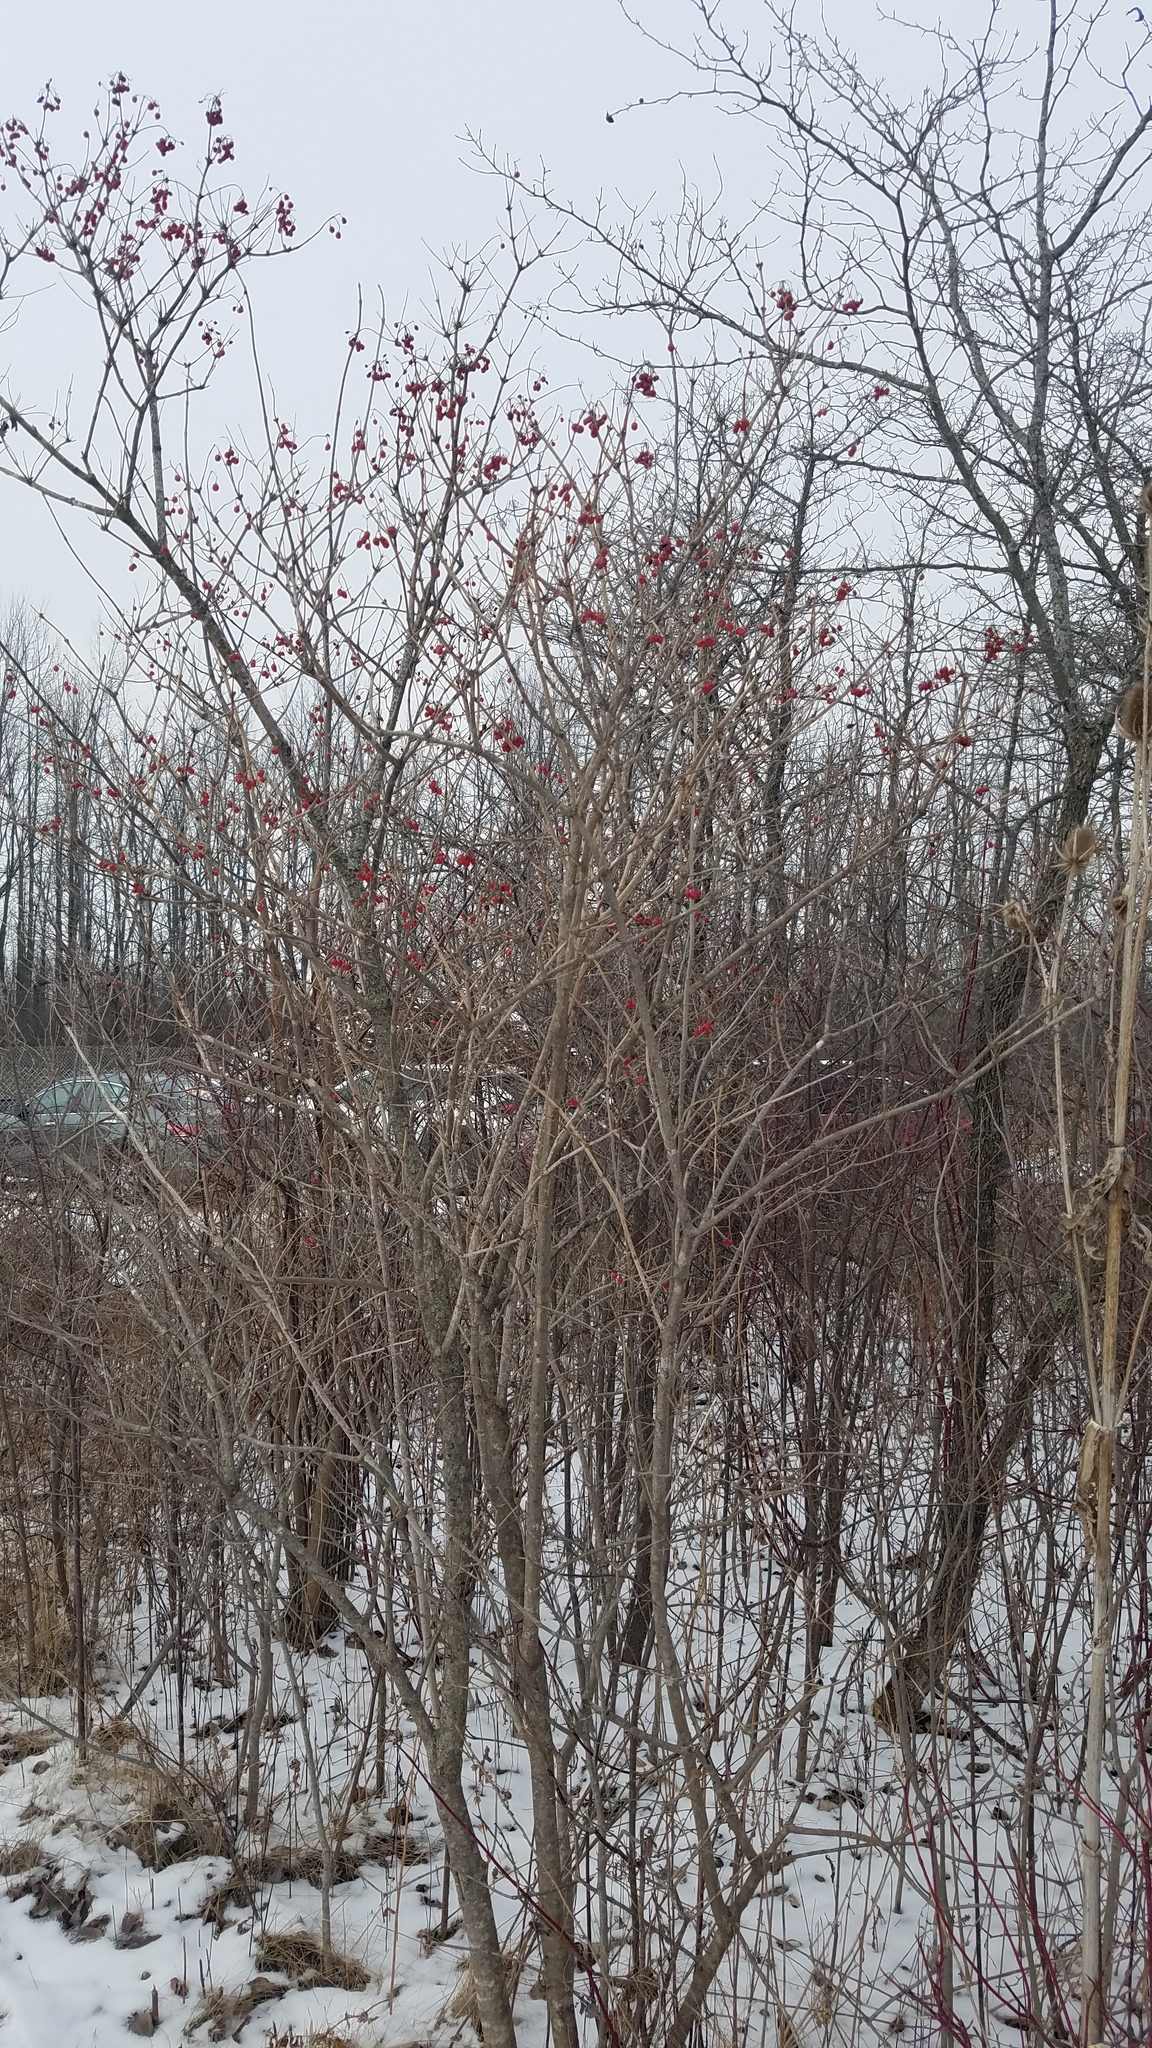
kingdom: Plantae
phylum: Tracheophyta
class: Magnoliopsida
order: Dipsacales
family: Viburnaceae
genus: Viburnum
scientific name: Viburnum opulus
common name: Guelder-rose
